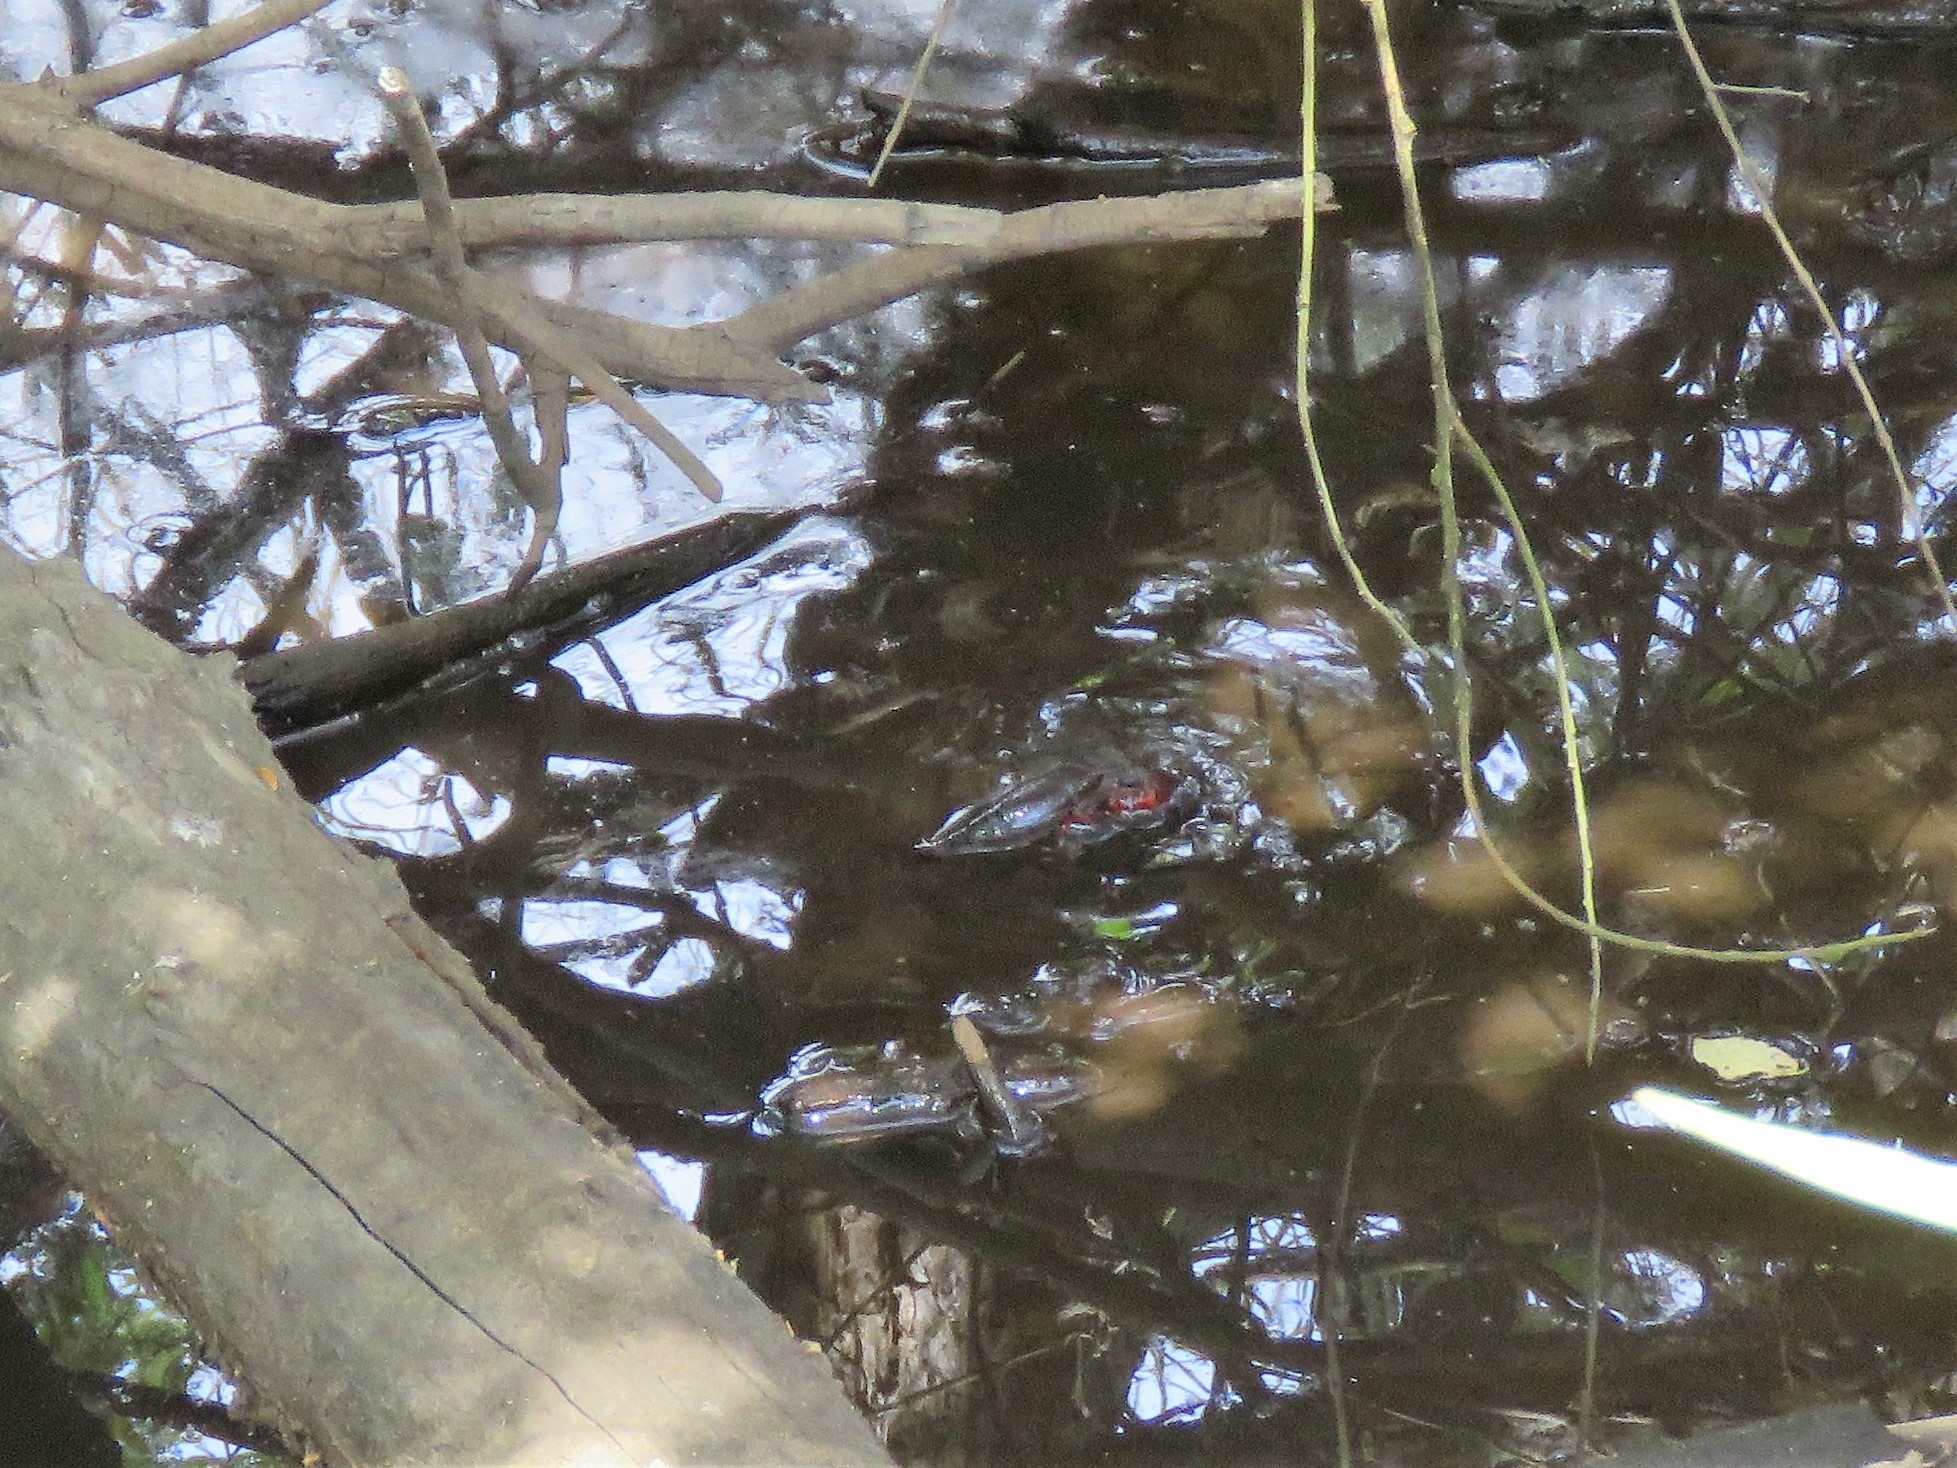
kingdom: Animalia
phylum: Arthropoda
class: Malacostraca
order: Decapoda
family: Cambaridae
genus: Procambarus
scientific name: Procambarus clarkii
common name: Red swamp crayfish
